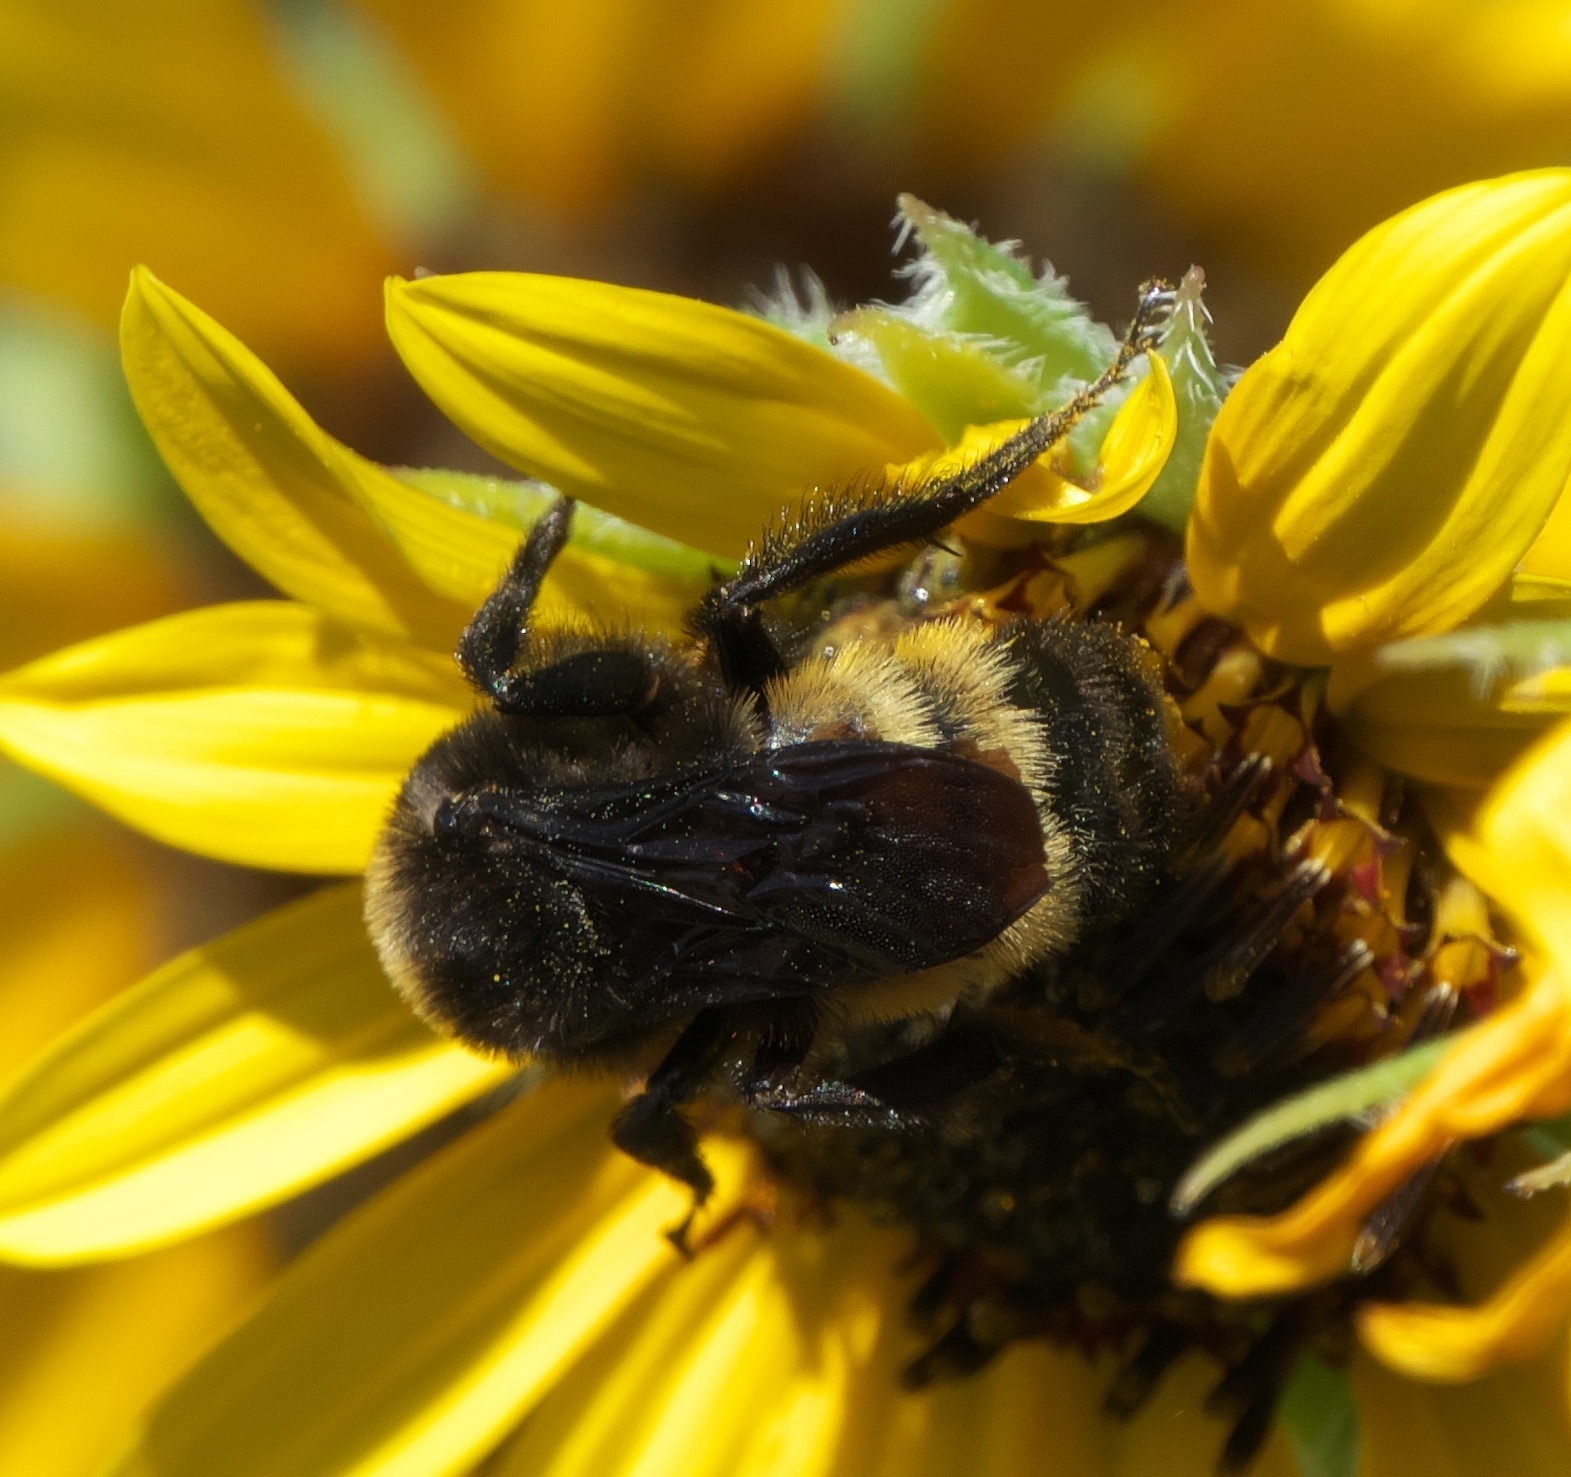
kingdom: Animalia
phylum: Arthropoda
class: Insecta
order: Hymenoptera
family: Apidae
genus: Bombus
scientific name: Bombus pensylvanicus
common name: Bumble bee
